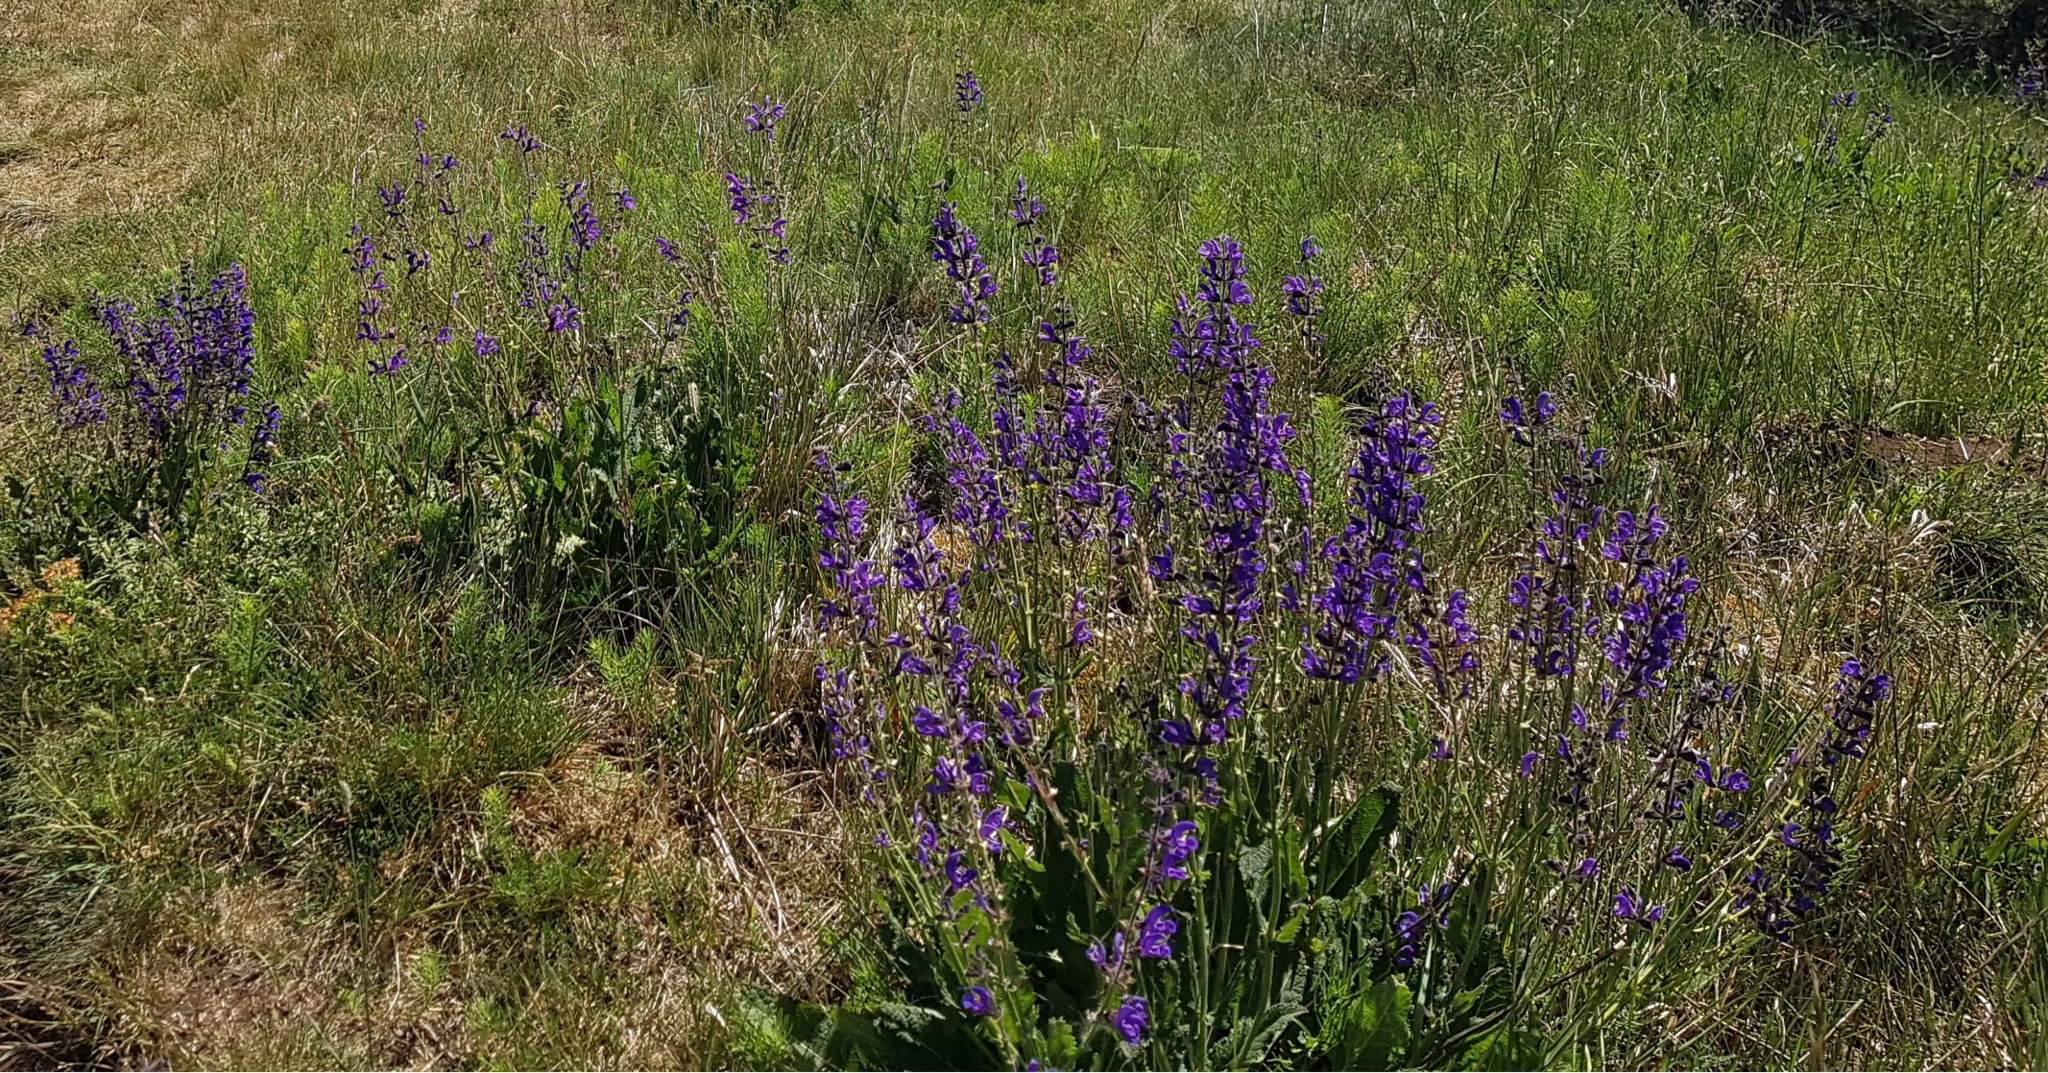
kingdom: Plantae
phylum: Tracheophyta
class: Magnoliopsida
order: Lamiales
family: Lamiaceae
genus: Salvia
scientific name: Salvia pratensis
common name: Meadow sage
